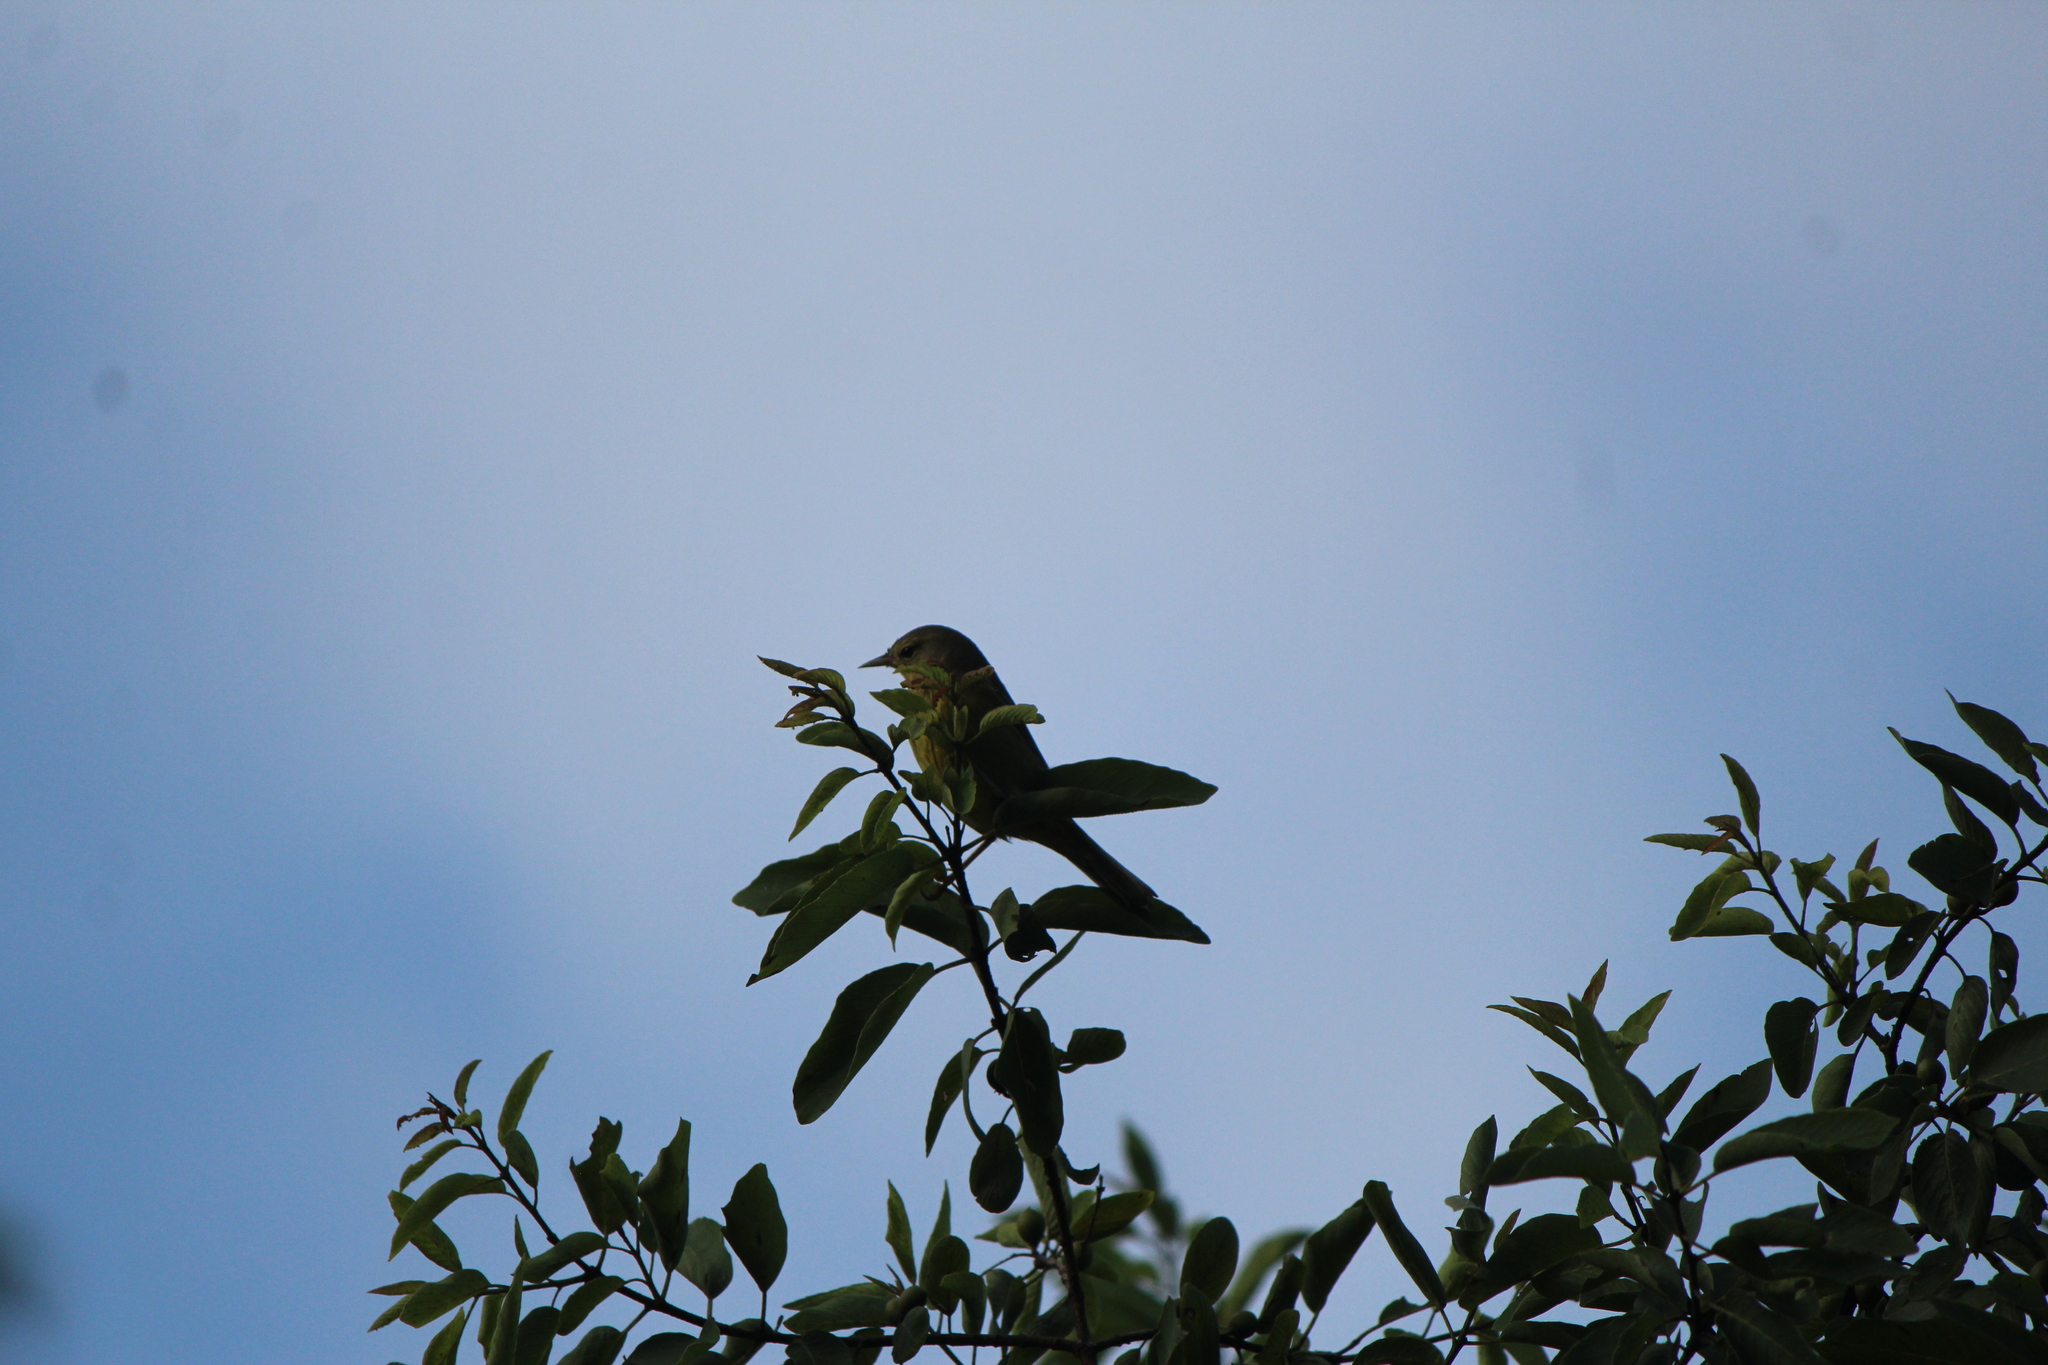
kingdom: Animalia
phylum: Chordata
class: Aves
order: Passeriformes
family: Parulidae
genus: Leiothlypis
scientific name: Leiothlypis celata
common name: Orange-crowned warbler
